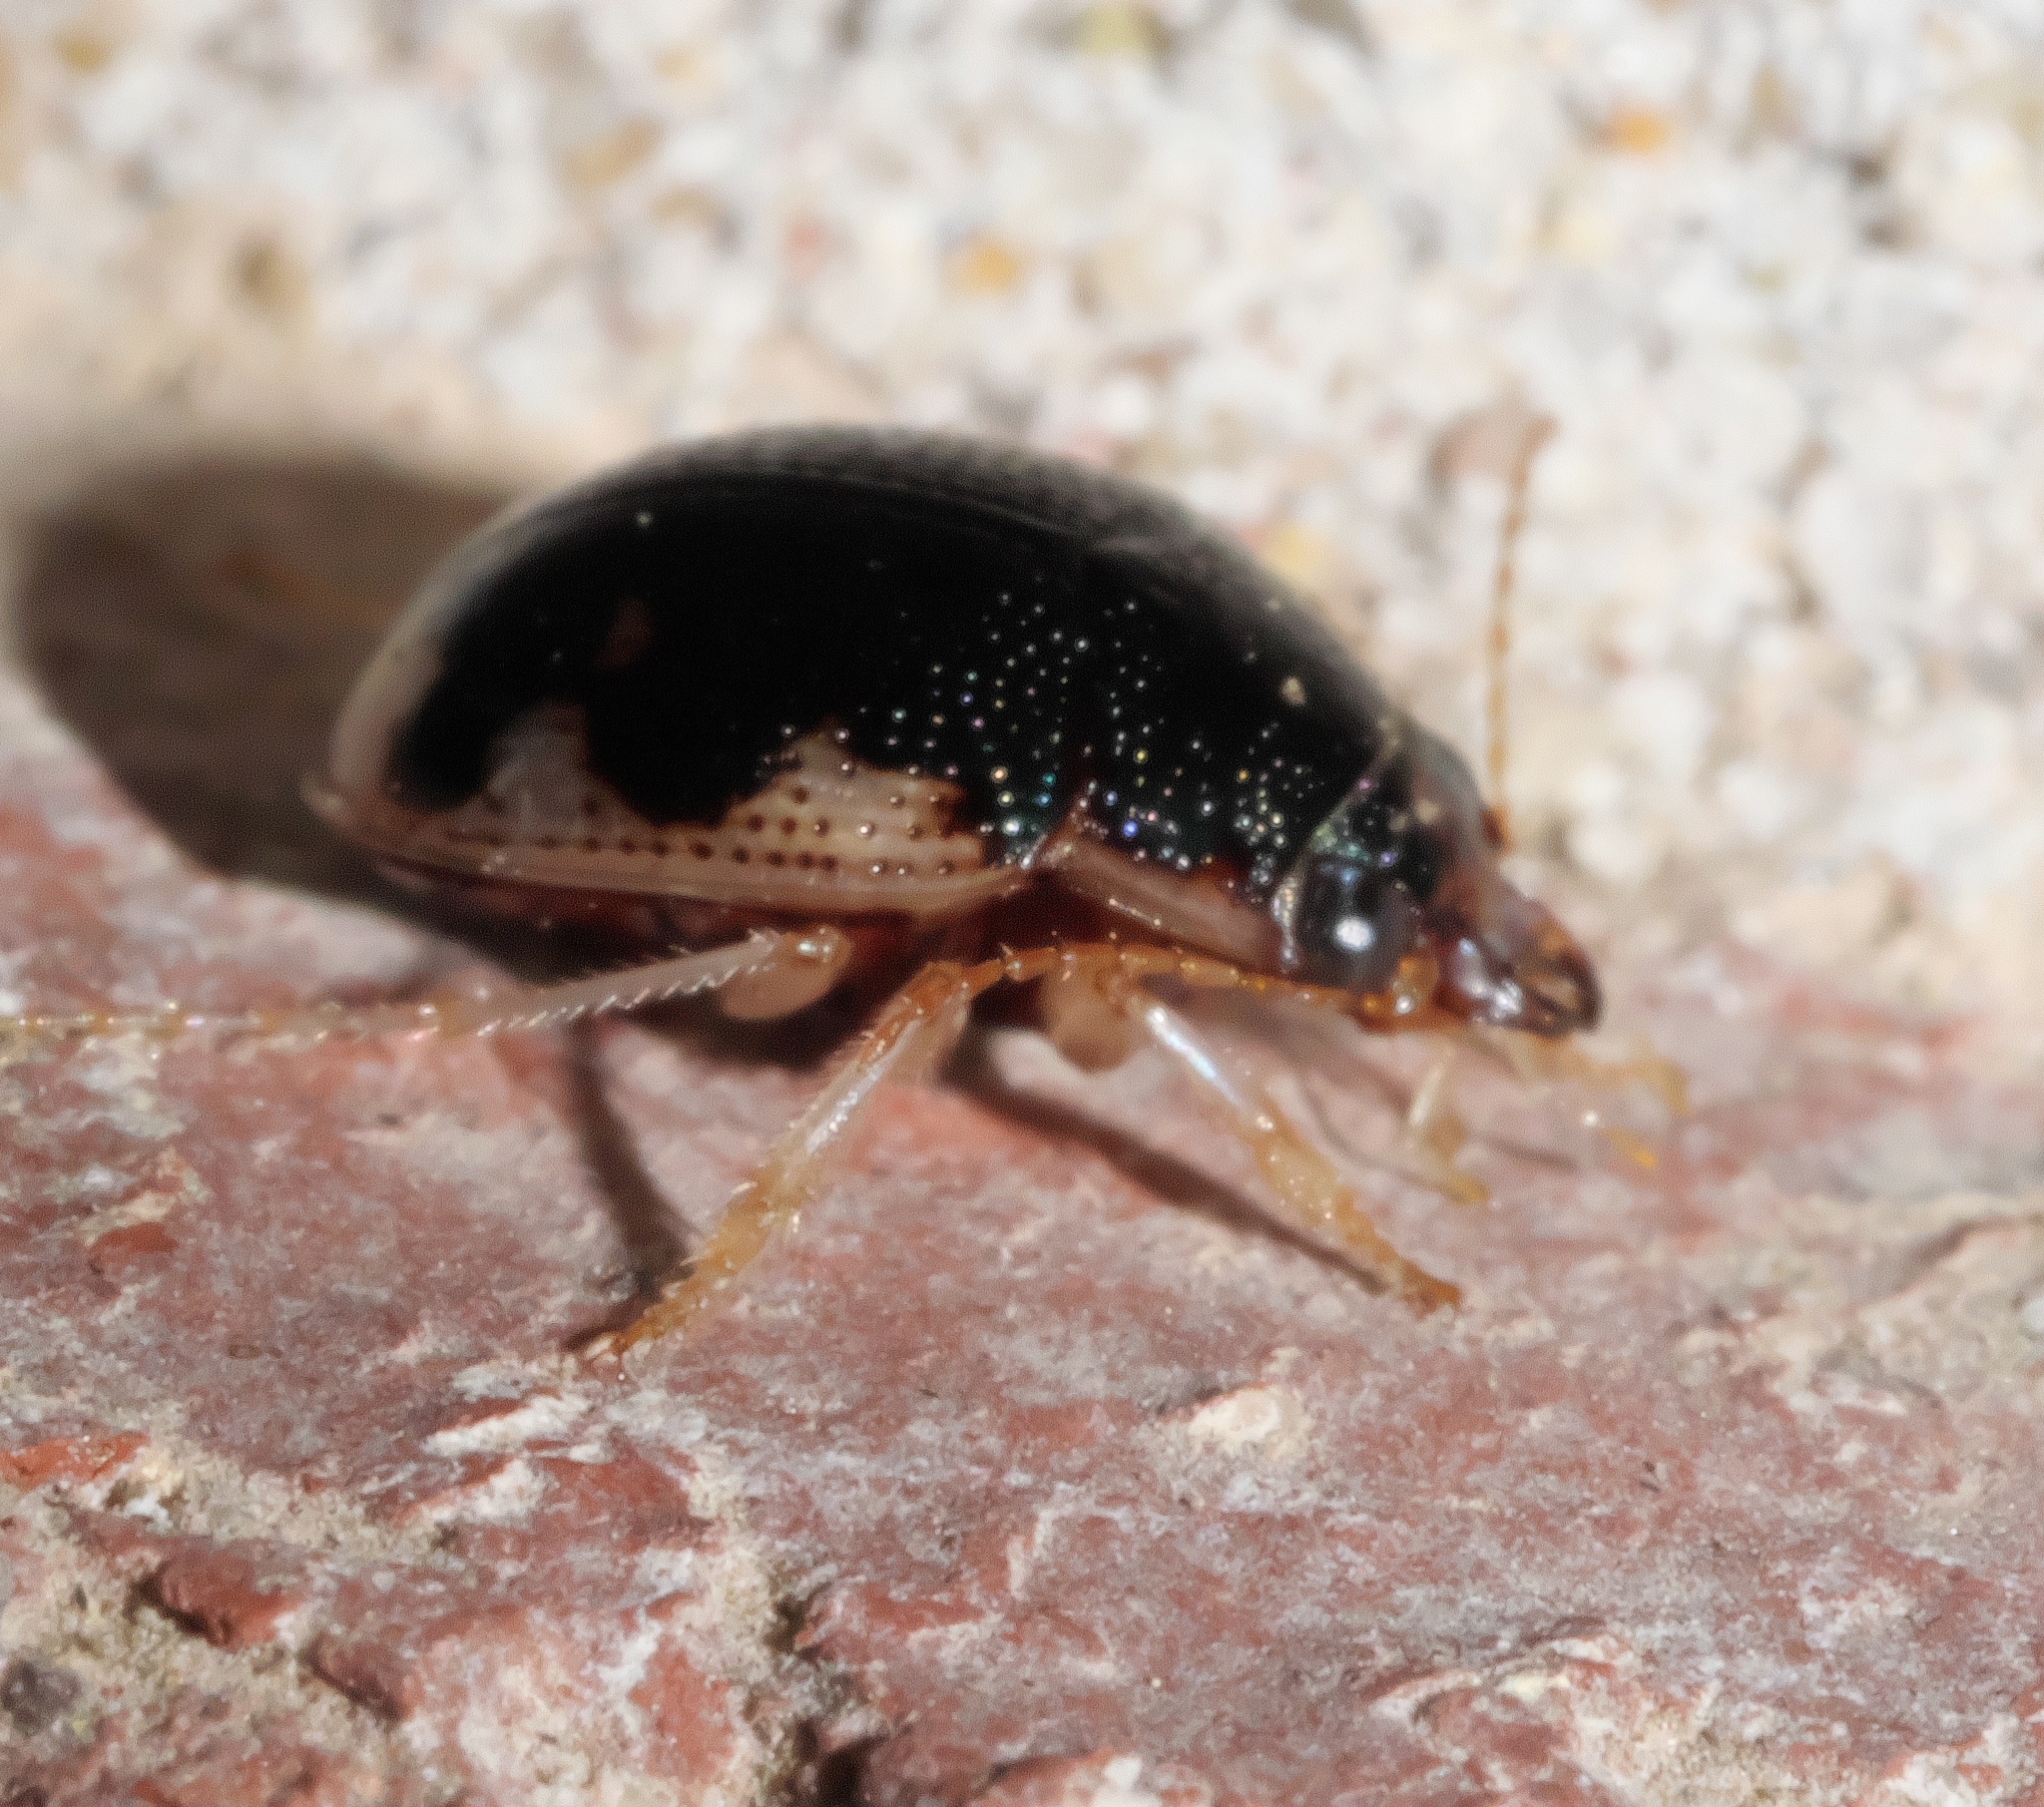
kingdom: Animalia
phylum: Arthropoda
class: Insecta
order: Coleoptera
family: Carabidae
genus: Omophron
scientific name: Omophron americanum
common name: American round sand beetle
